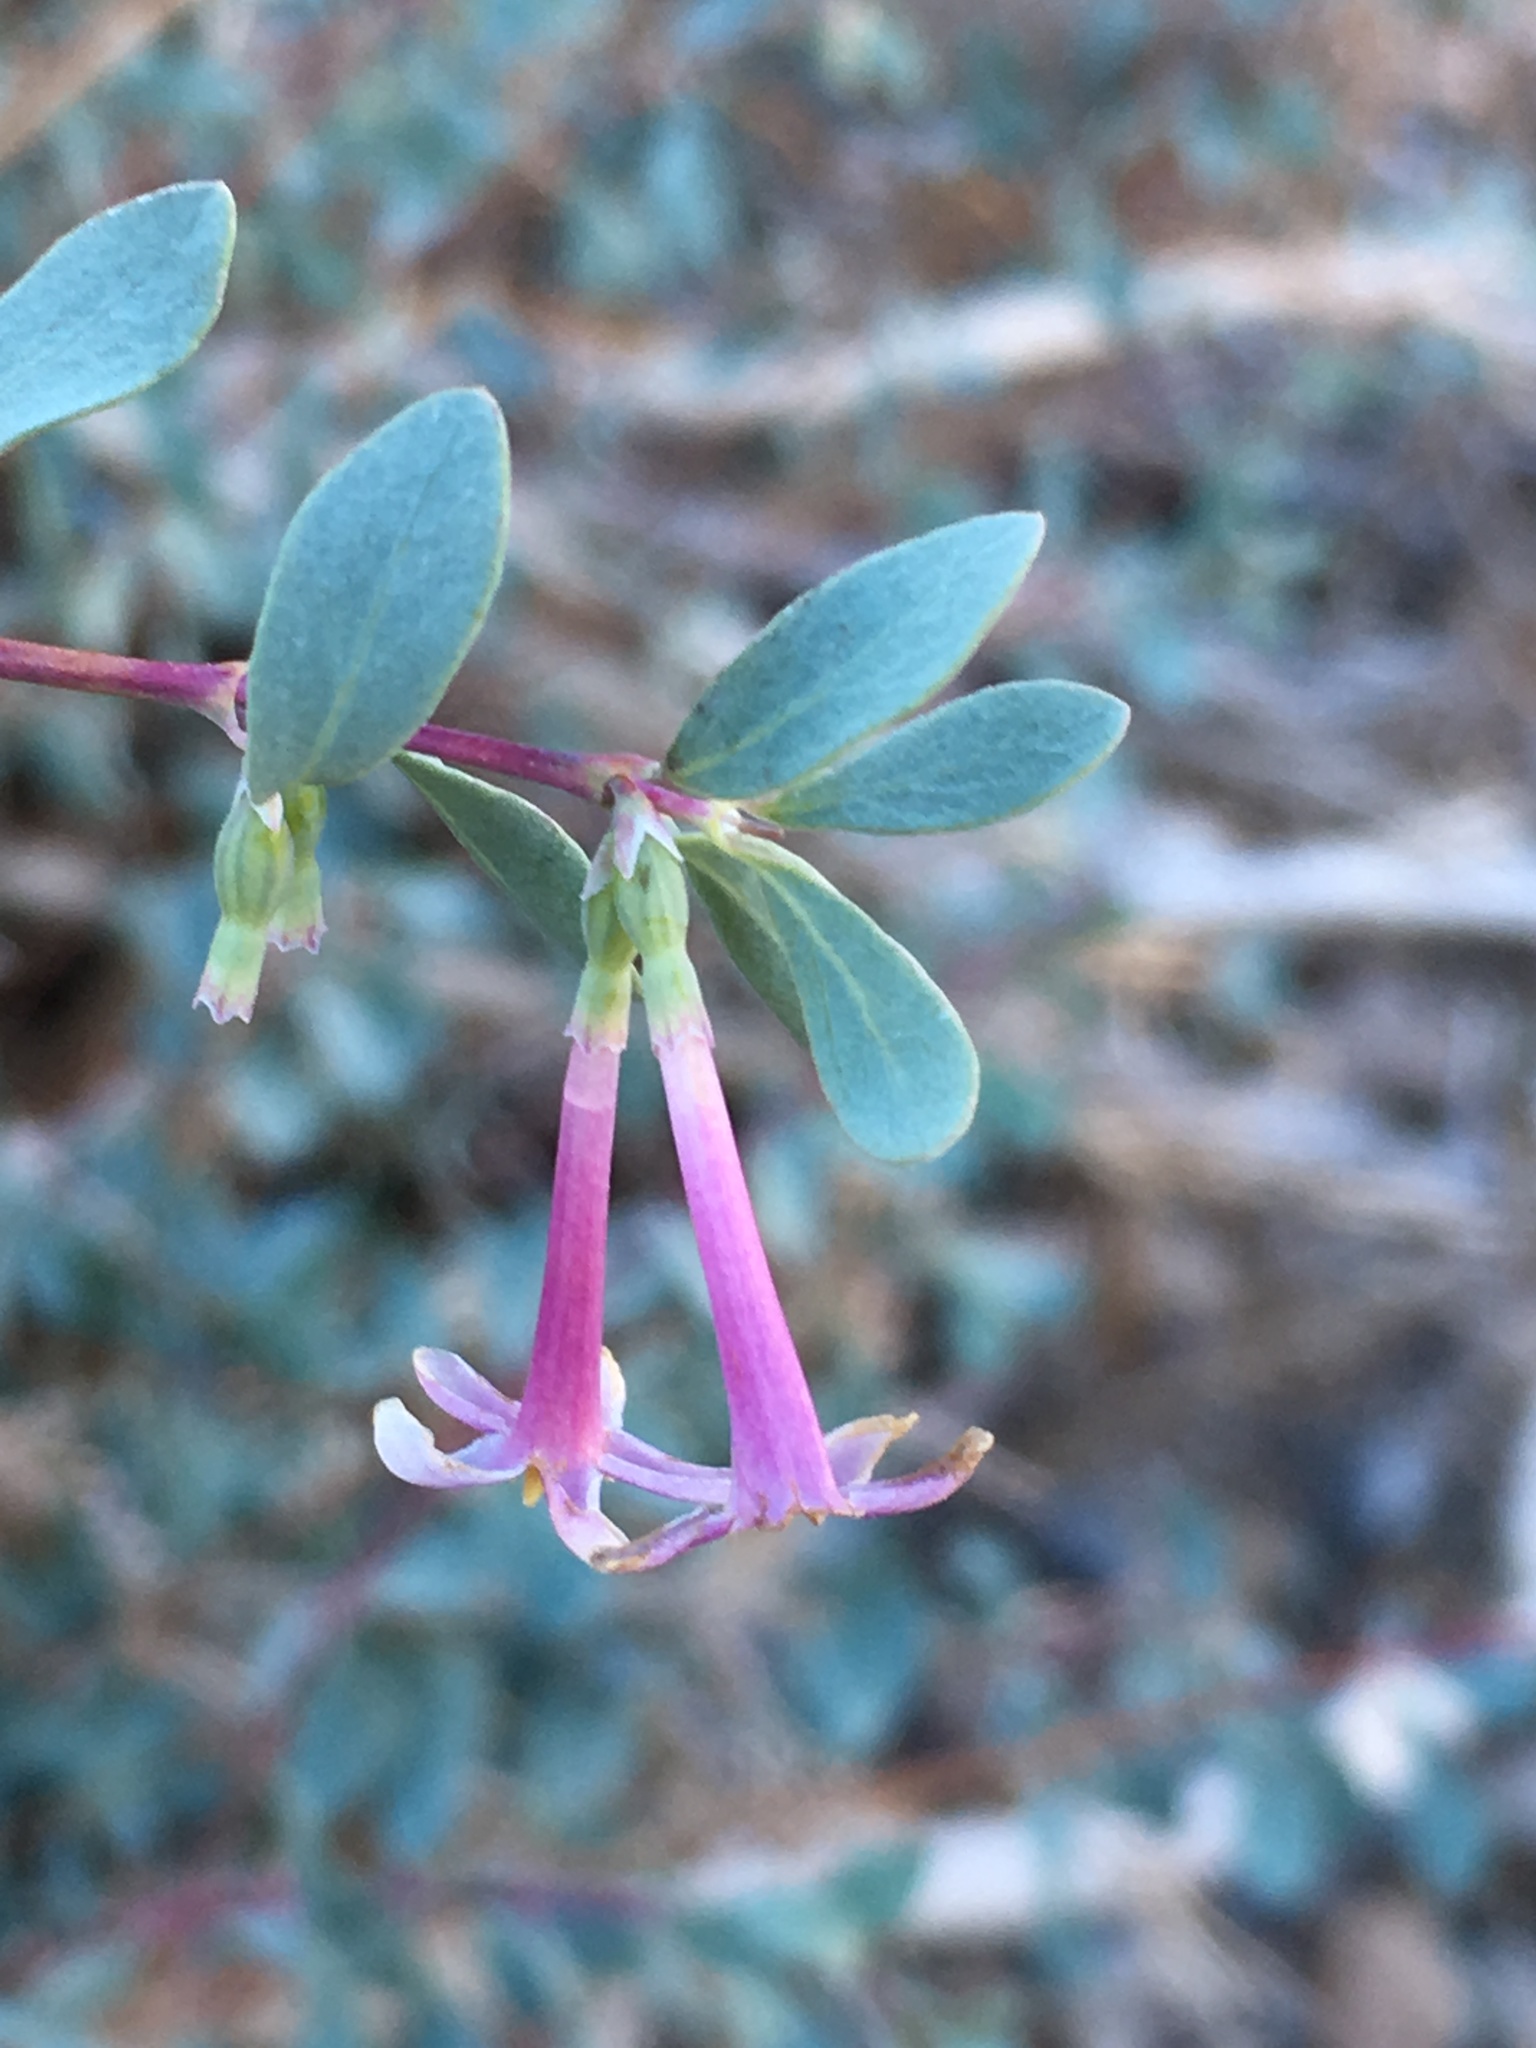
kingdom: Plantae
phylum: Tracheophyta
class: Magnoliopsida
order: Dipsacales
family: Caprifoliaceae
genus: Symphoricarpos
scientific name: Symphoricarpos longiflorus
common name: Fragrant snowberry
